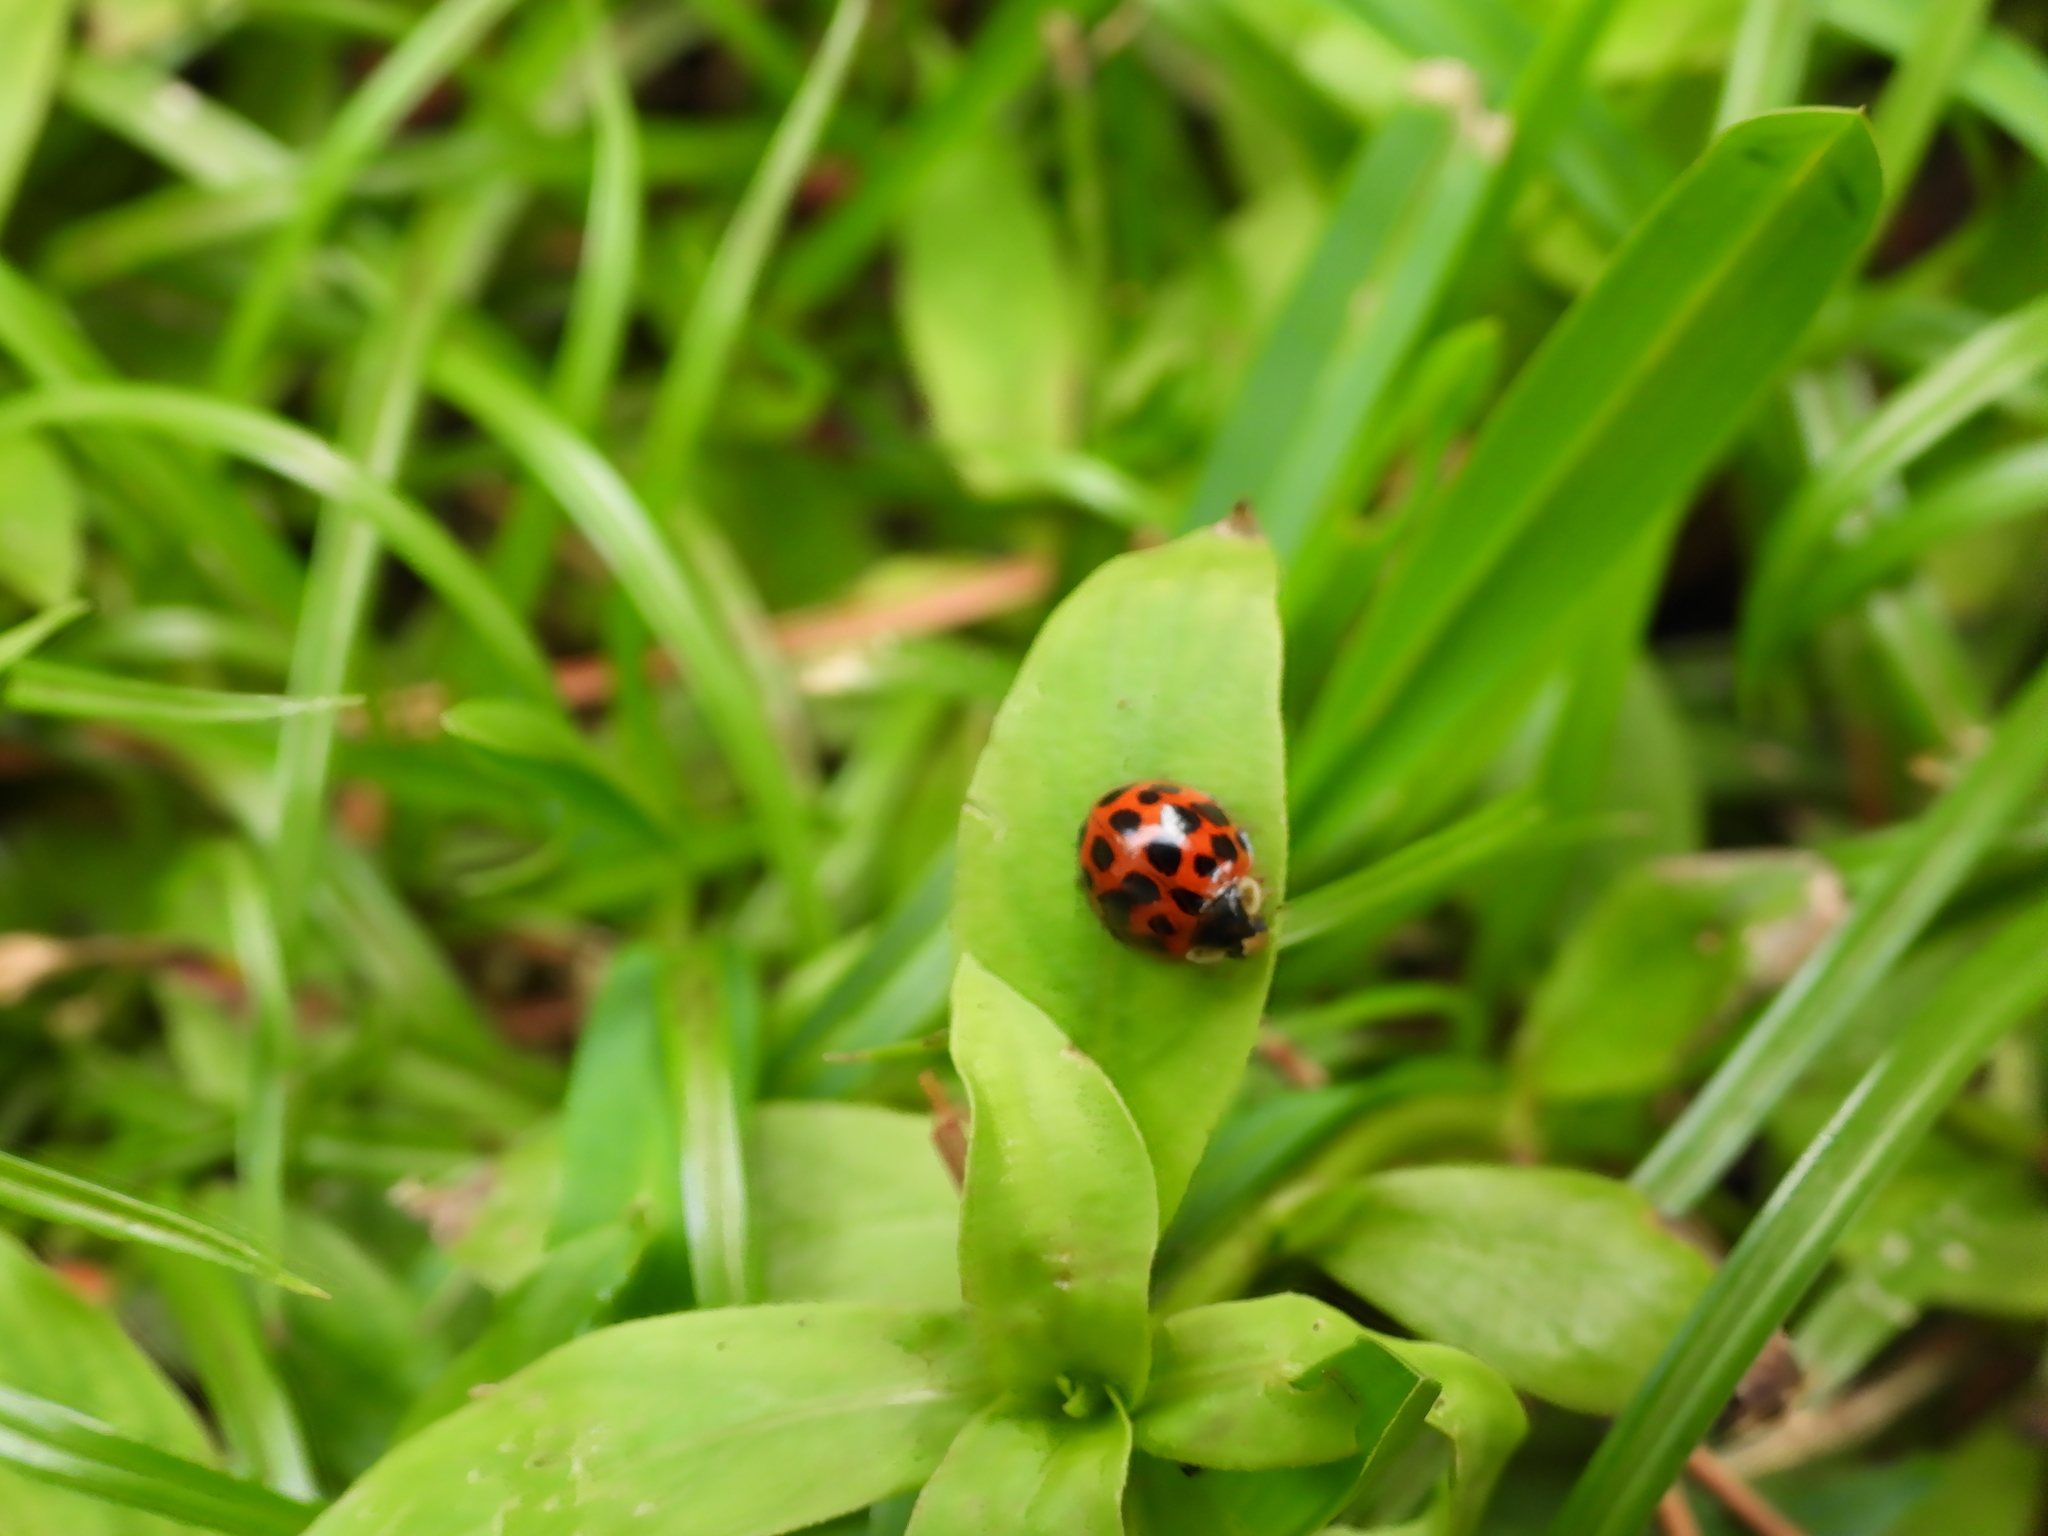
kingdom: Animalia
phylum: Arthropoda
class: Insecta
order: Coleoptera
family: Coccinellidae
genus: Harmonia
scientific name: Harmonia axyridis
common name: Harlequin ladybird
